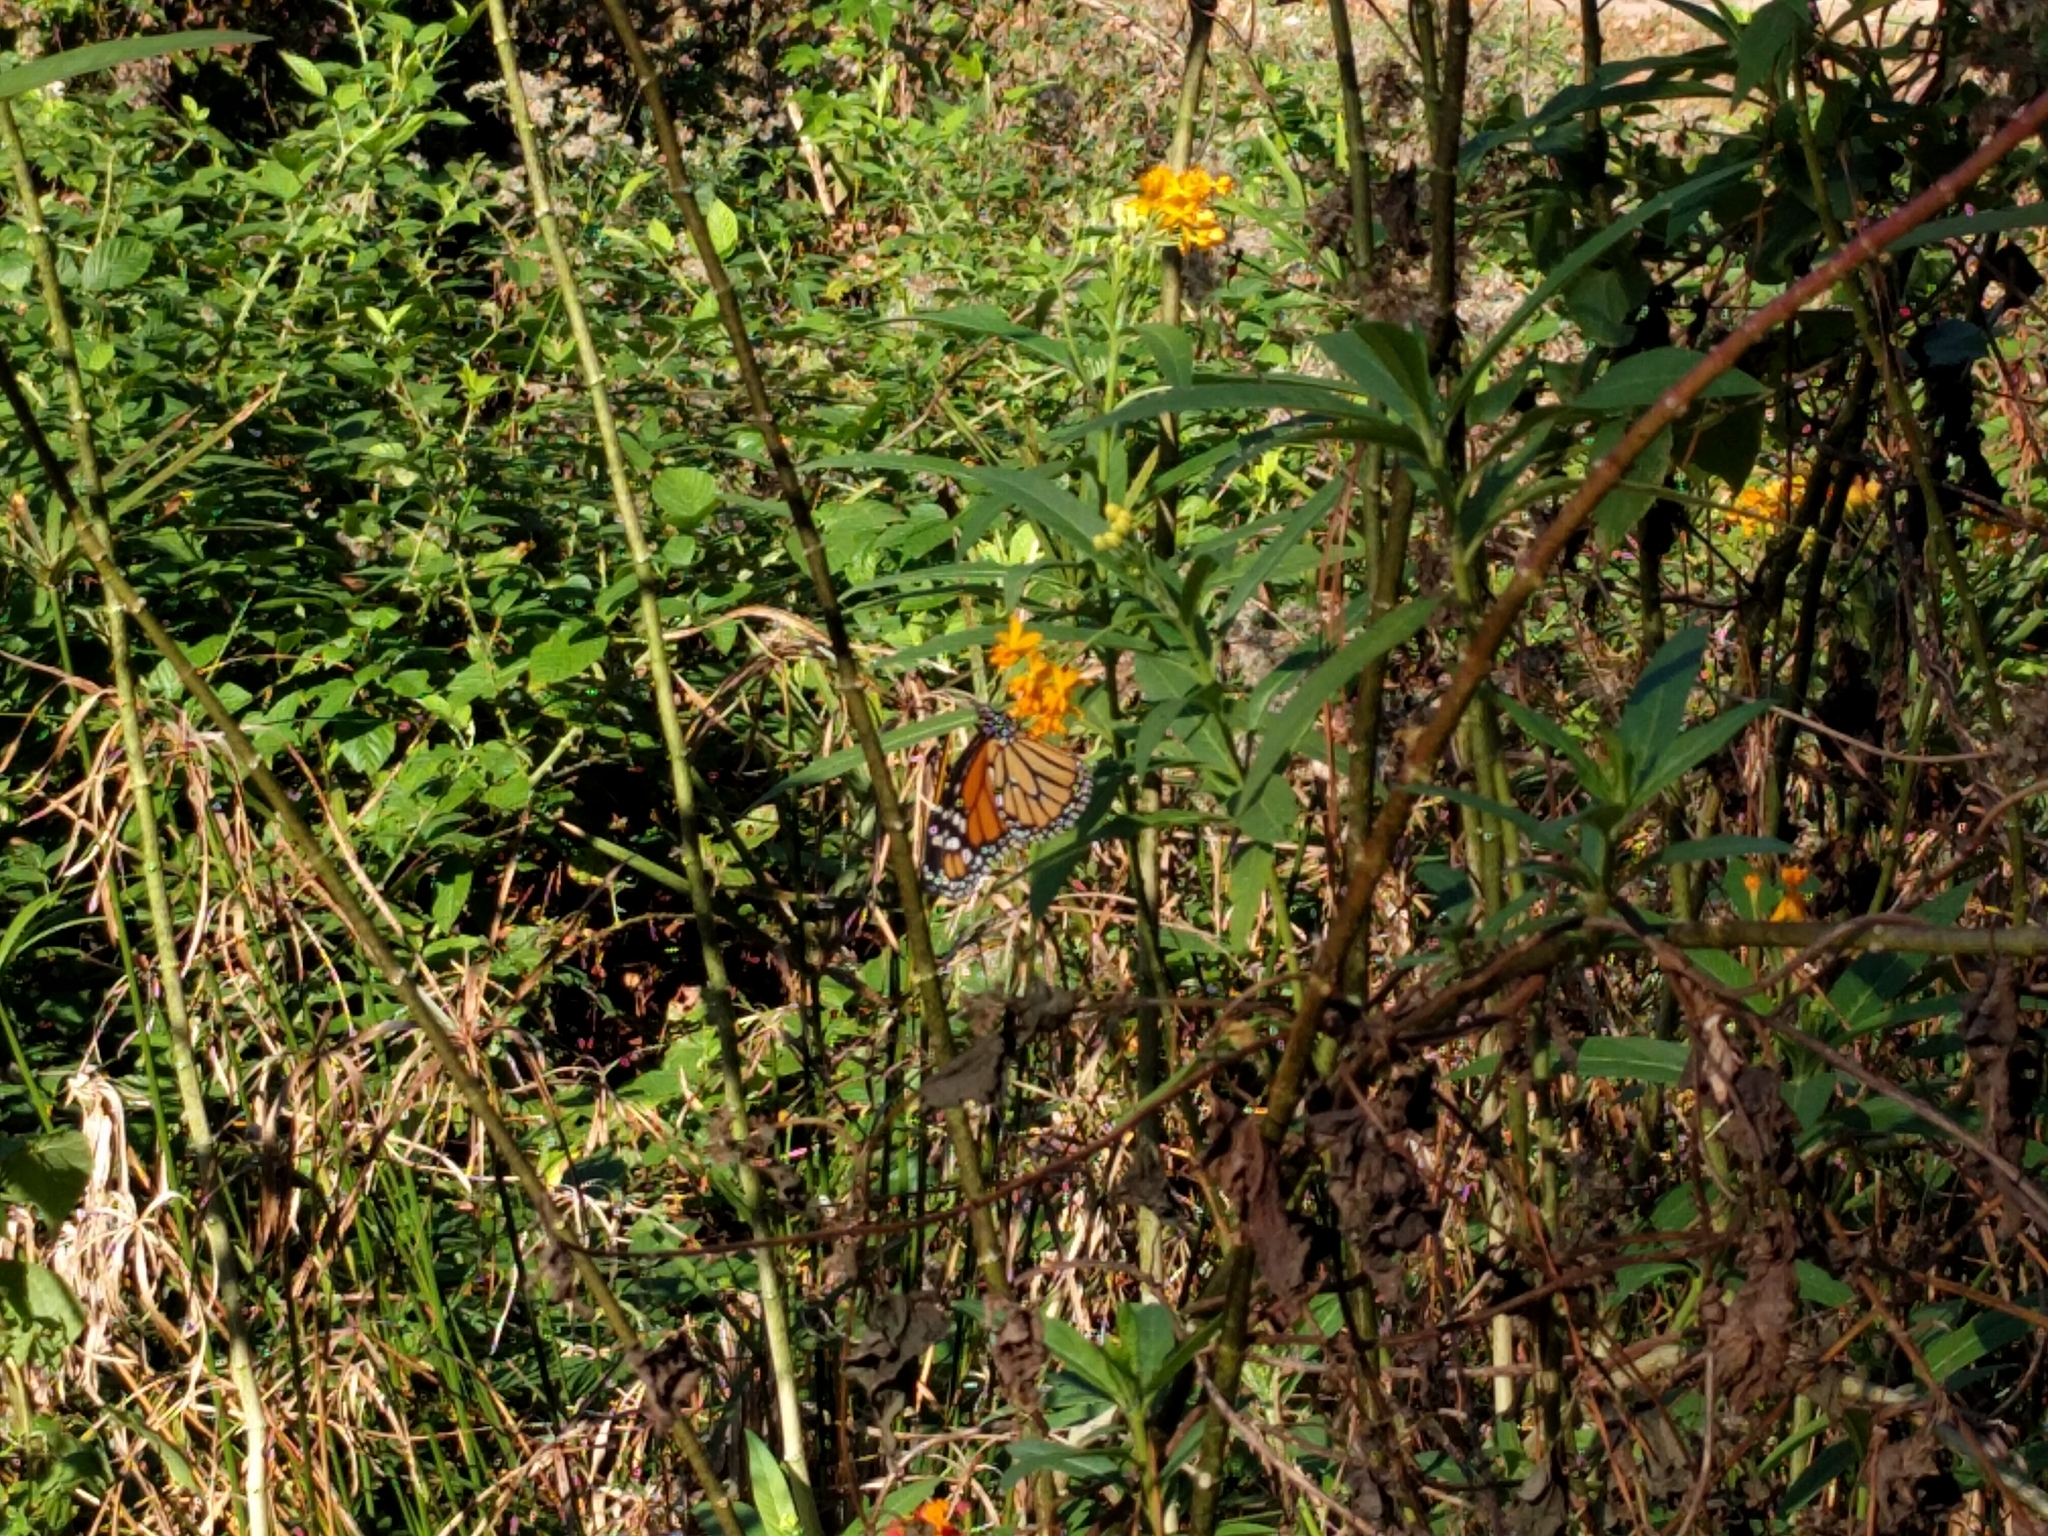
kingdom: Animalia
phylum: Arthropoda
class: Insecta
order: Lepidoptera
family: Nymphalidae
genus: Danaus
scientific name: Danaus plexippus
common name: Monarch
